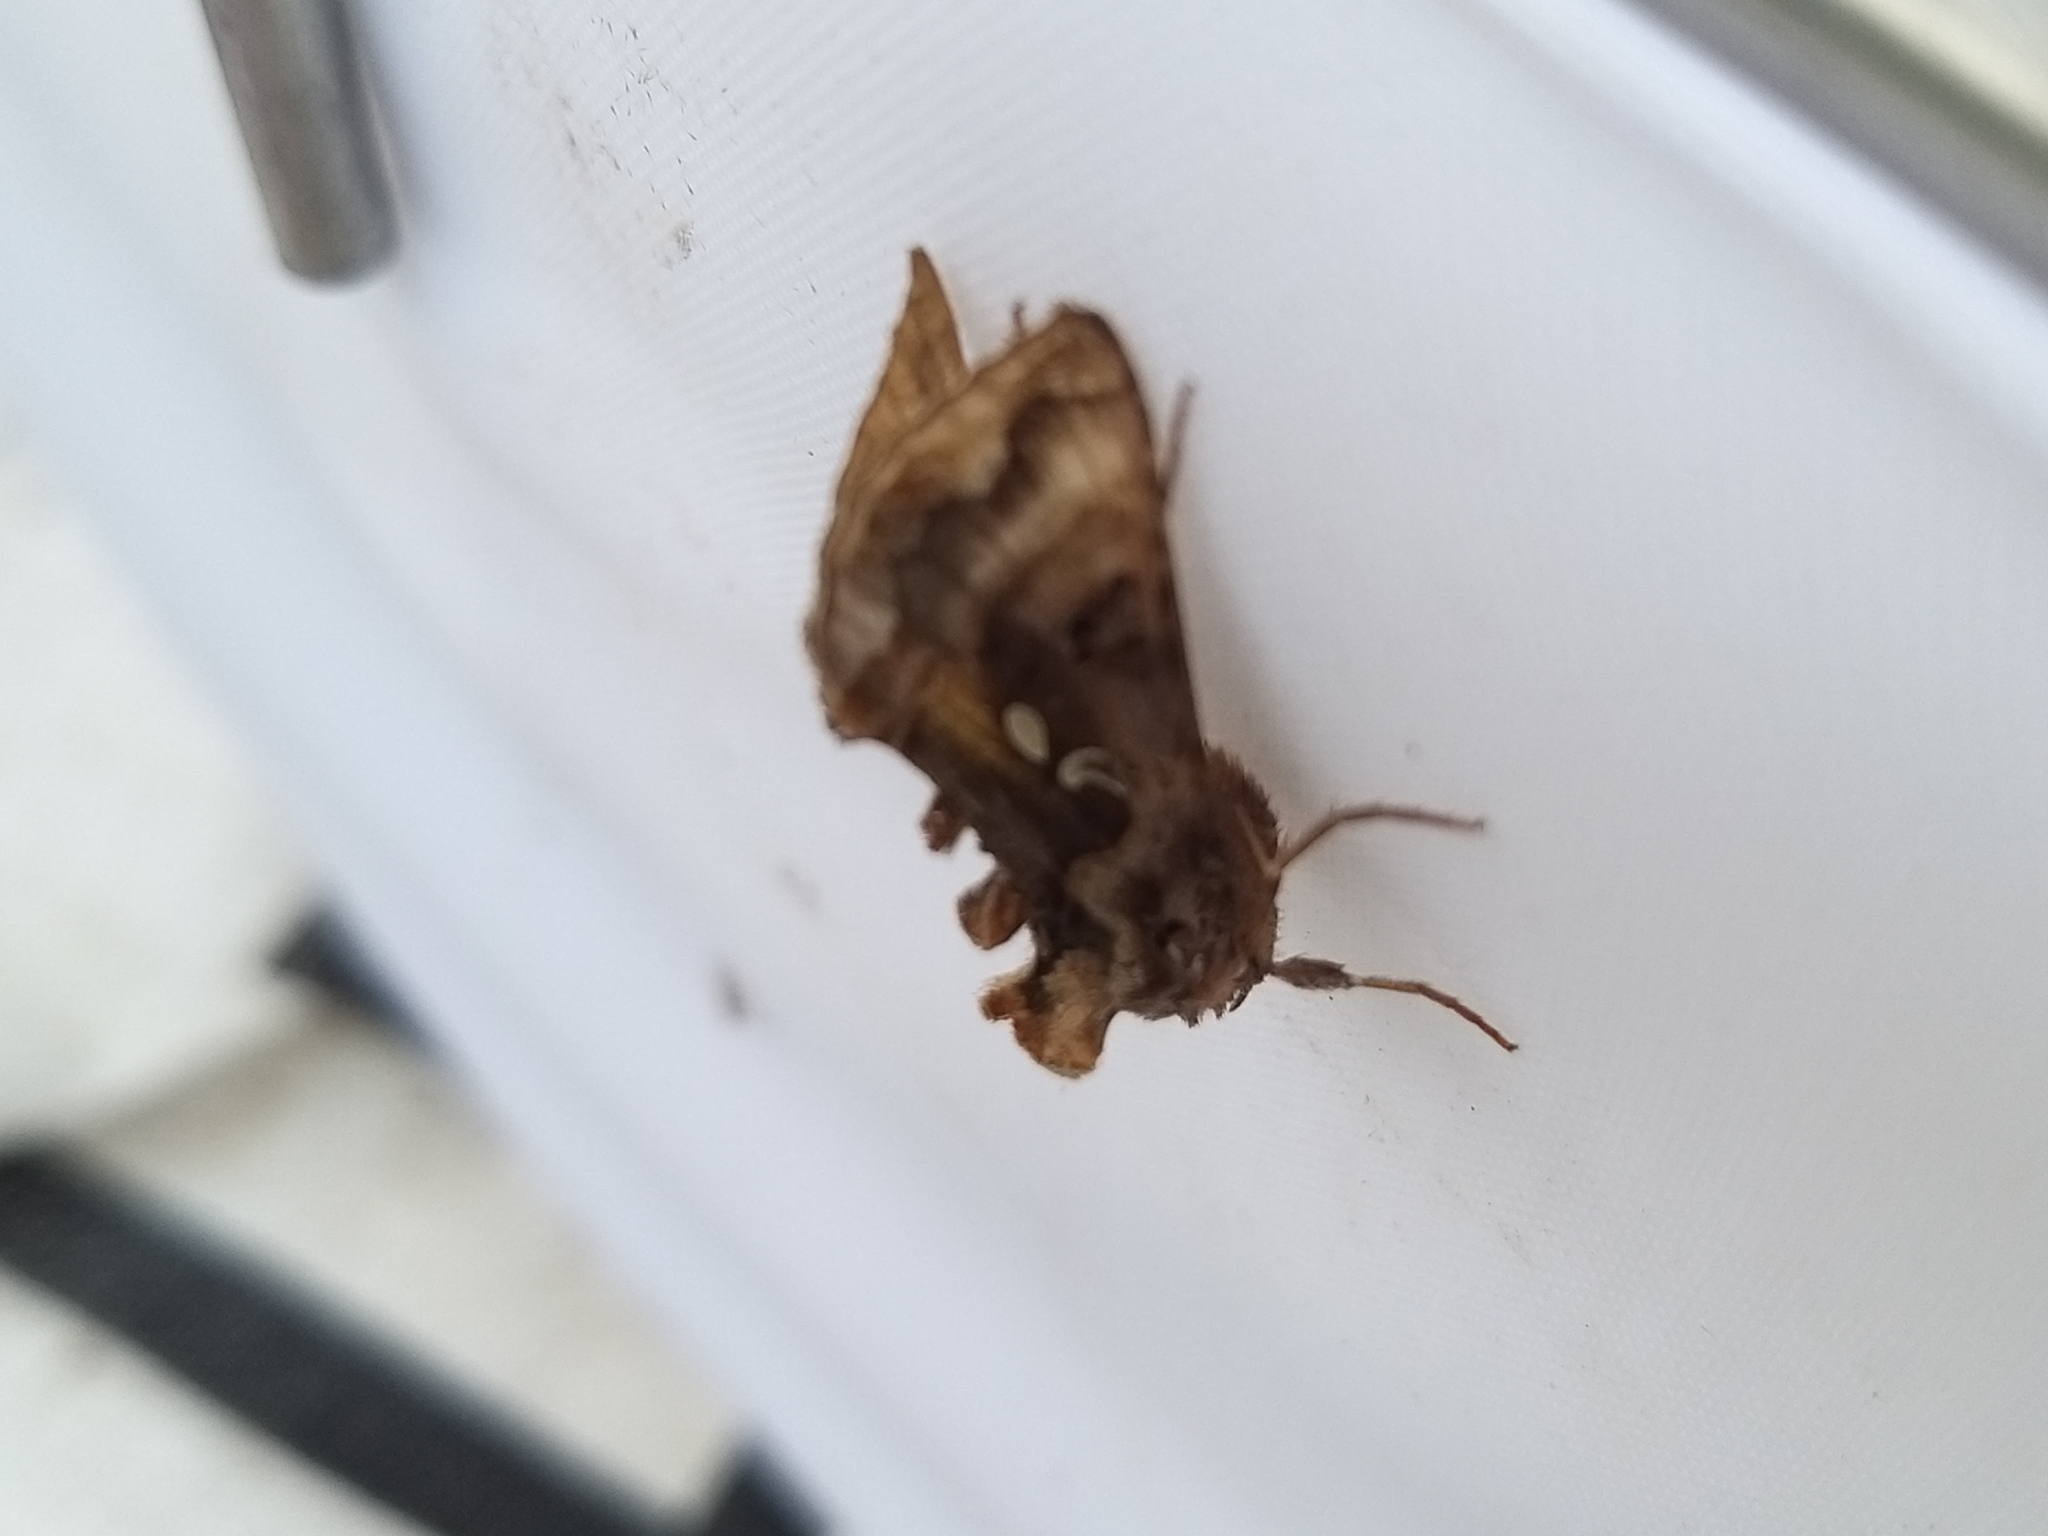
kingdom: Animalia
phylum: Arthropoda
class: Insecta
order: Lepidoptera
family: Noctuidae
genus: Autographa
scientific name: Autographa pulchrina
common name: Beautiful golden y
